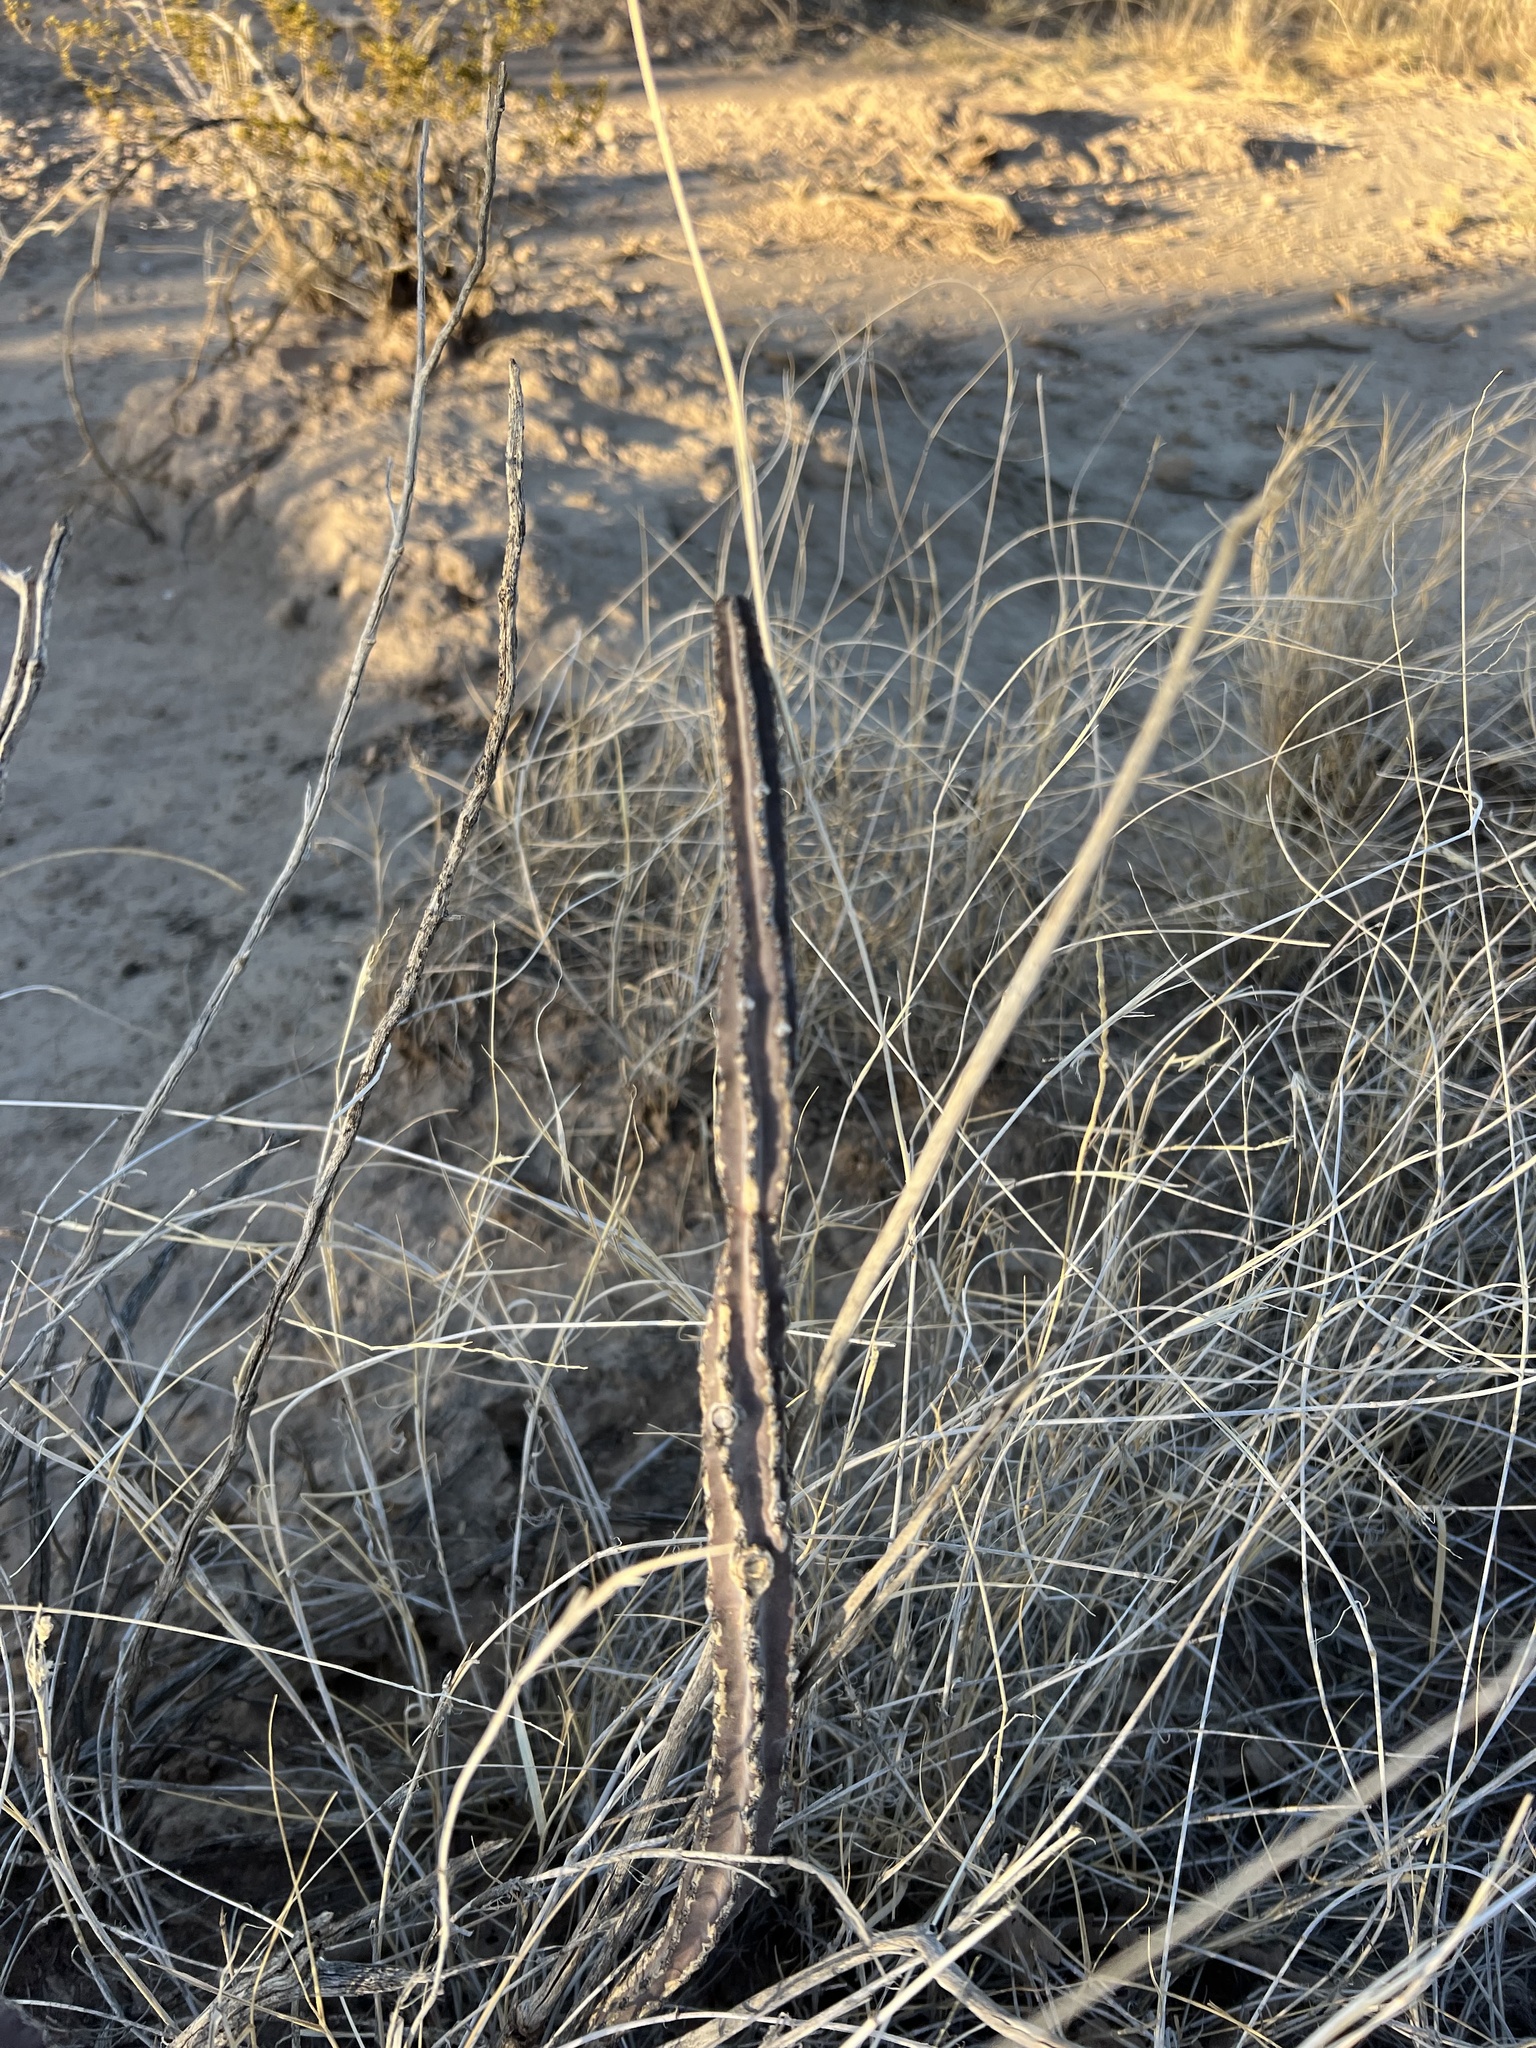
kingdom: Plantae
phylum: Tracheophyta
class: Magnoliopsida
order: Caryophyllales
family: Cactaceae
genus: Peniocereus
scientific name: Peniocereus greggii
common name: Desert night-blooming cereus
